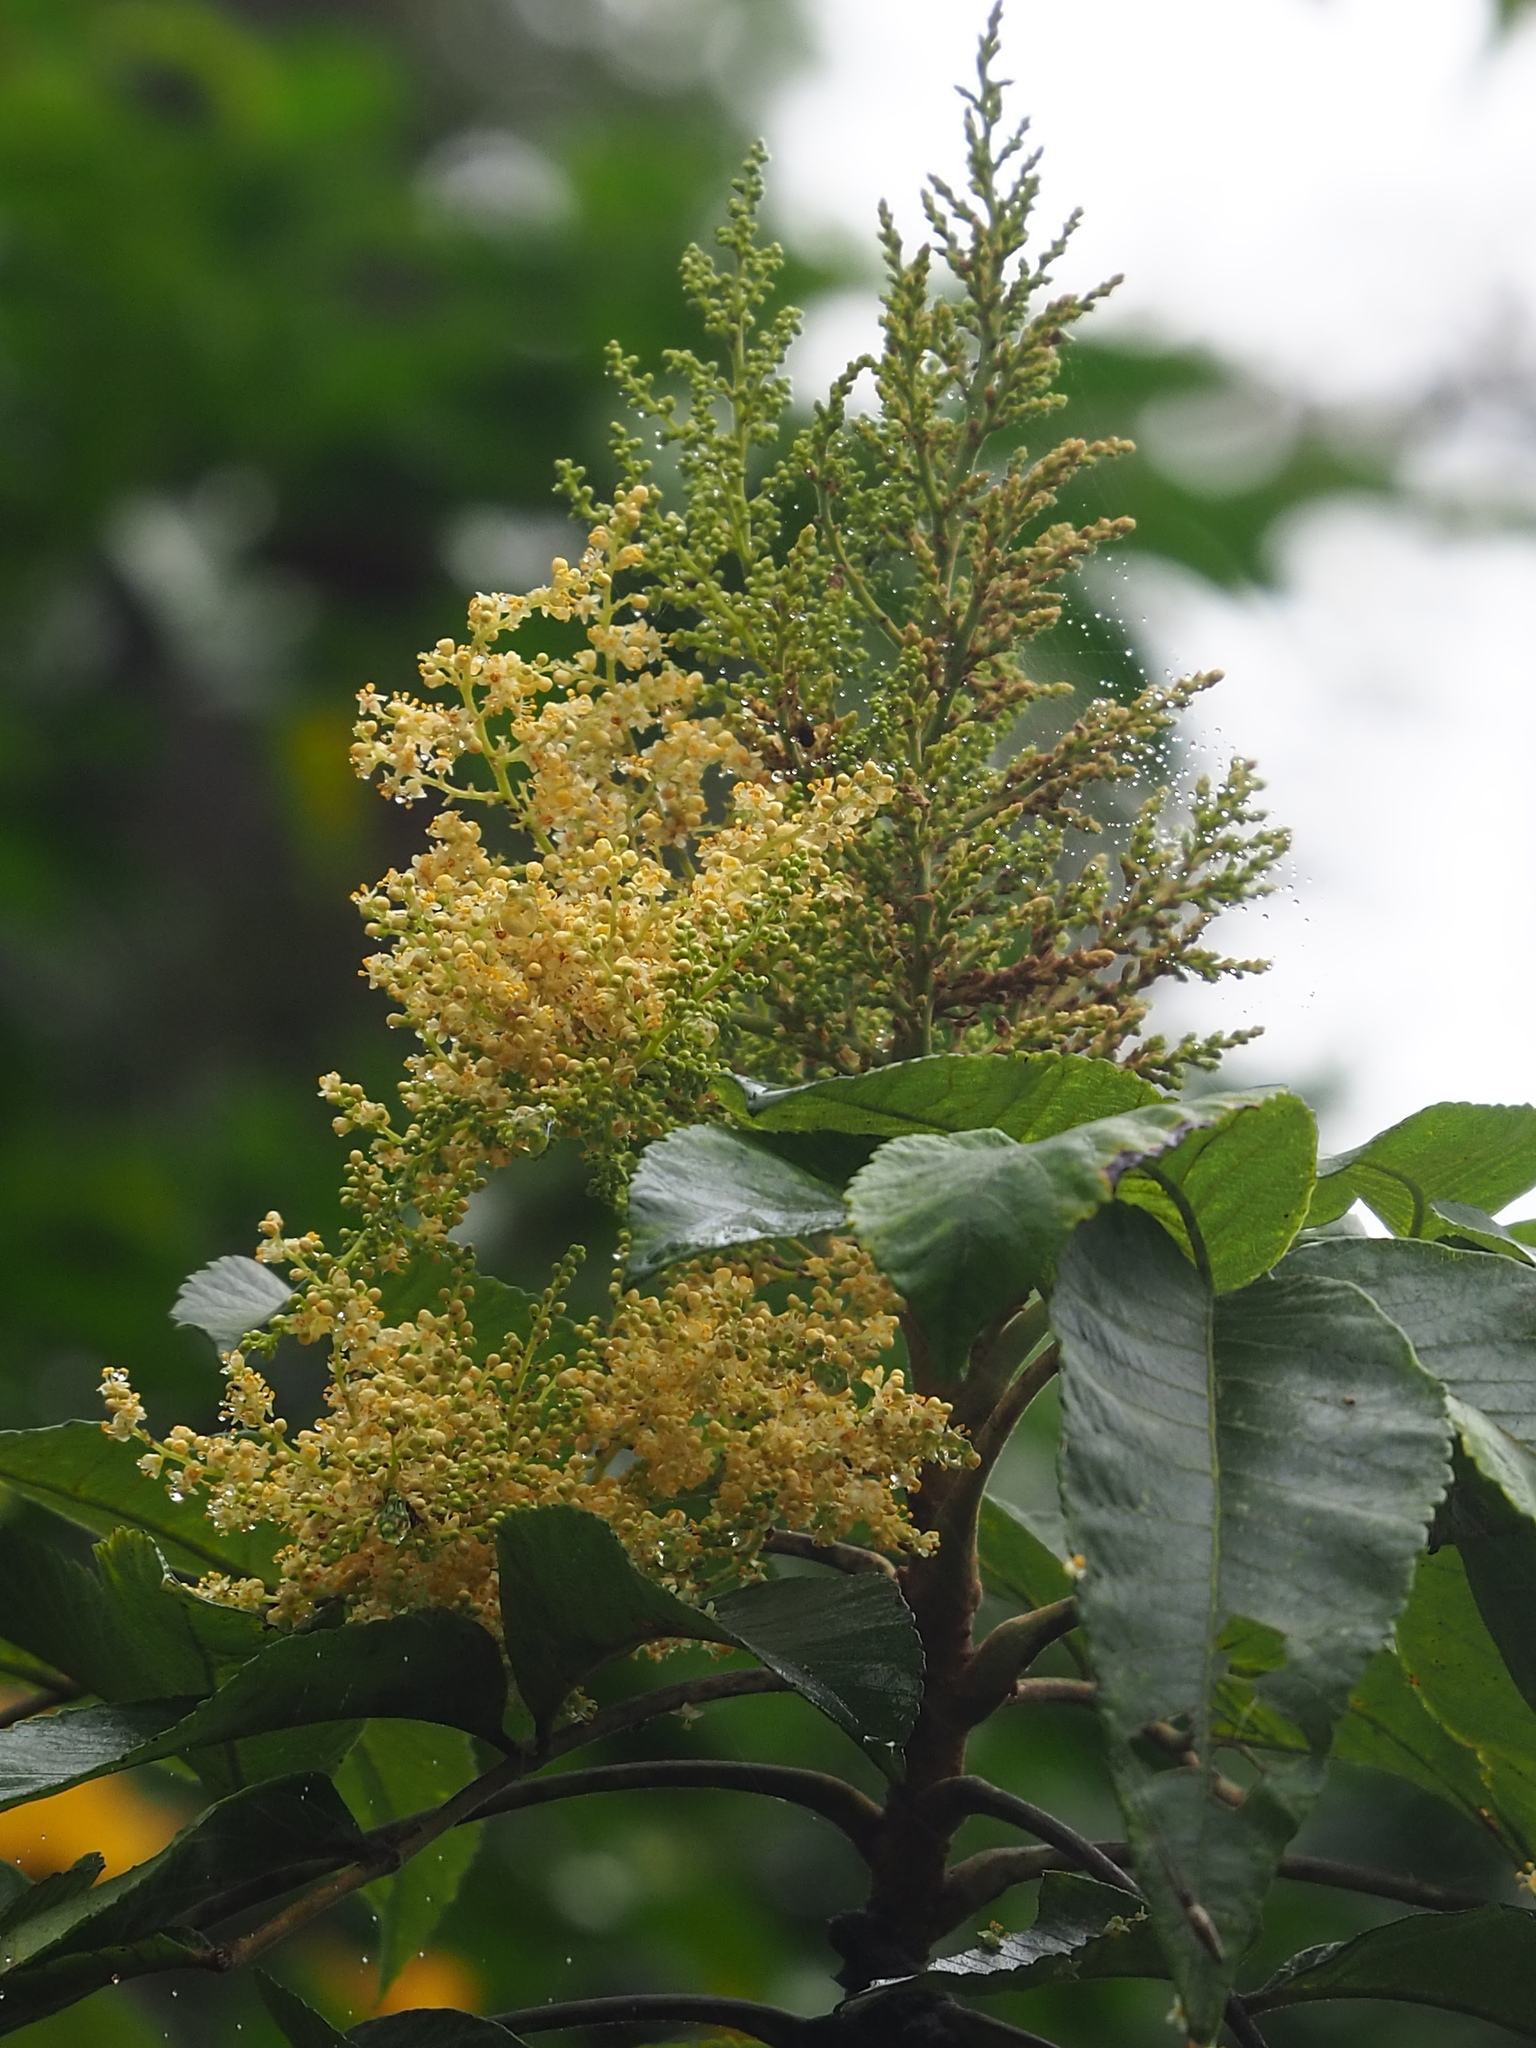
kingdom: Plantae
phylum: Tracheophyta
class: Magnoliopsida
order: Sapindales
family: Anacardiaceae
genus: Rhus
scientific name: Rhus chinensis
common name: Chinese gall
